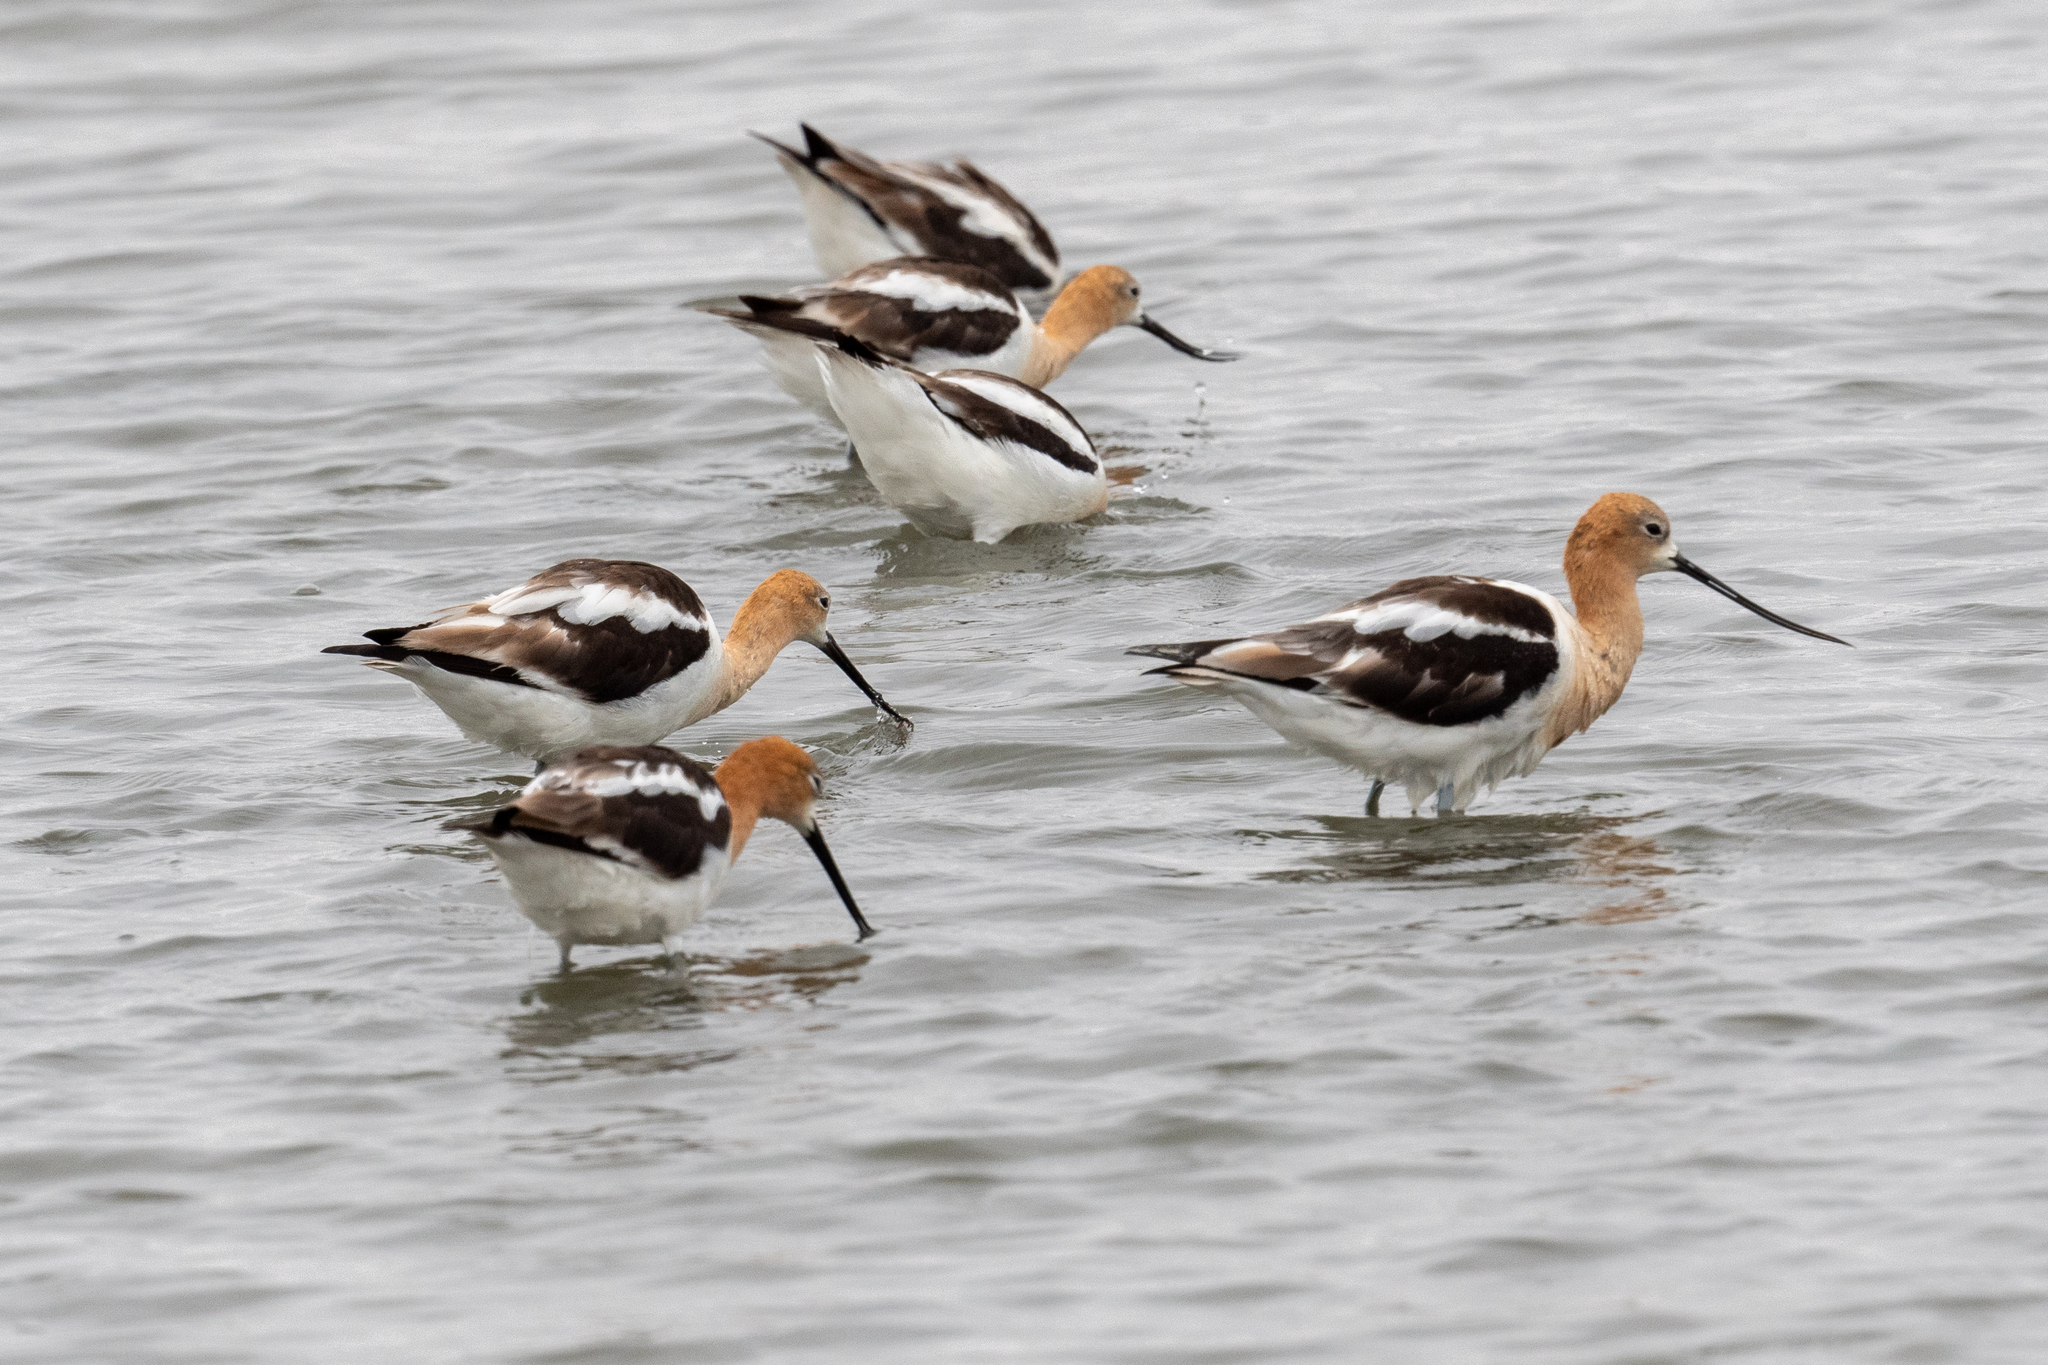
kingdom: Animalia
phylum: Chordata
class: Aves
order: Charadriiformes
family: Recurvirostridae
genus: Recurvirostra
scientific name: Recurvirostra americana
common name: American avocet
